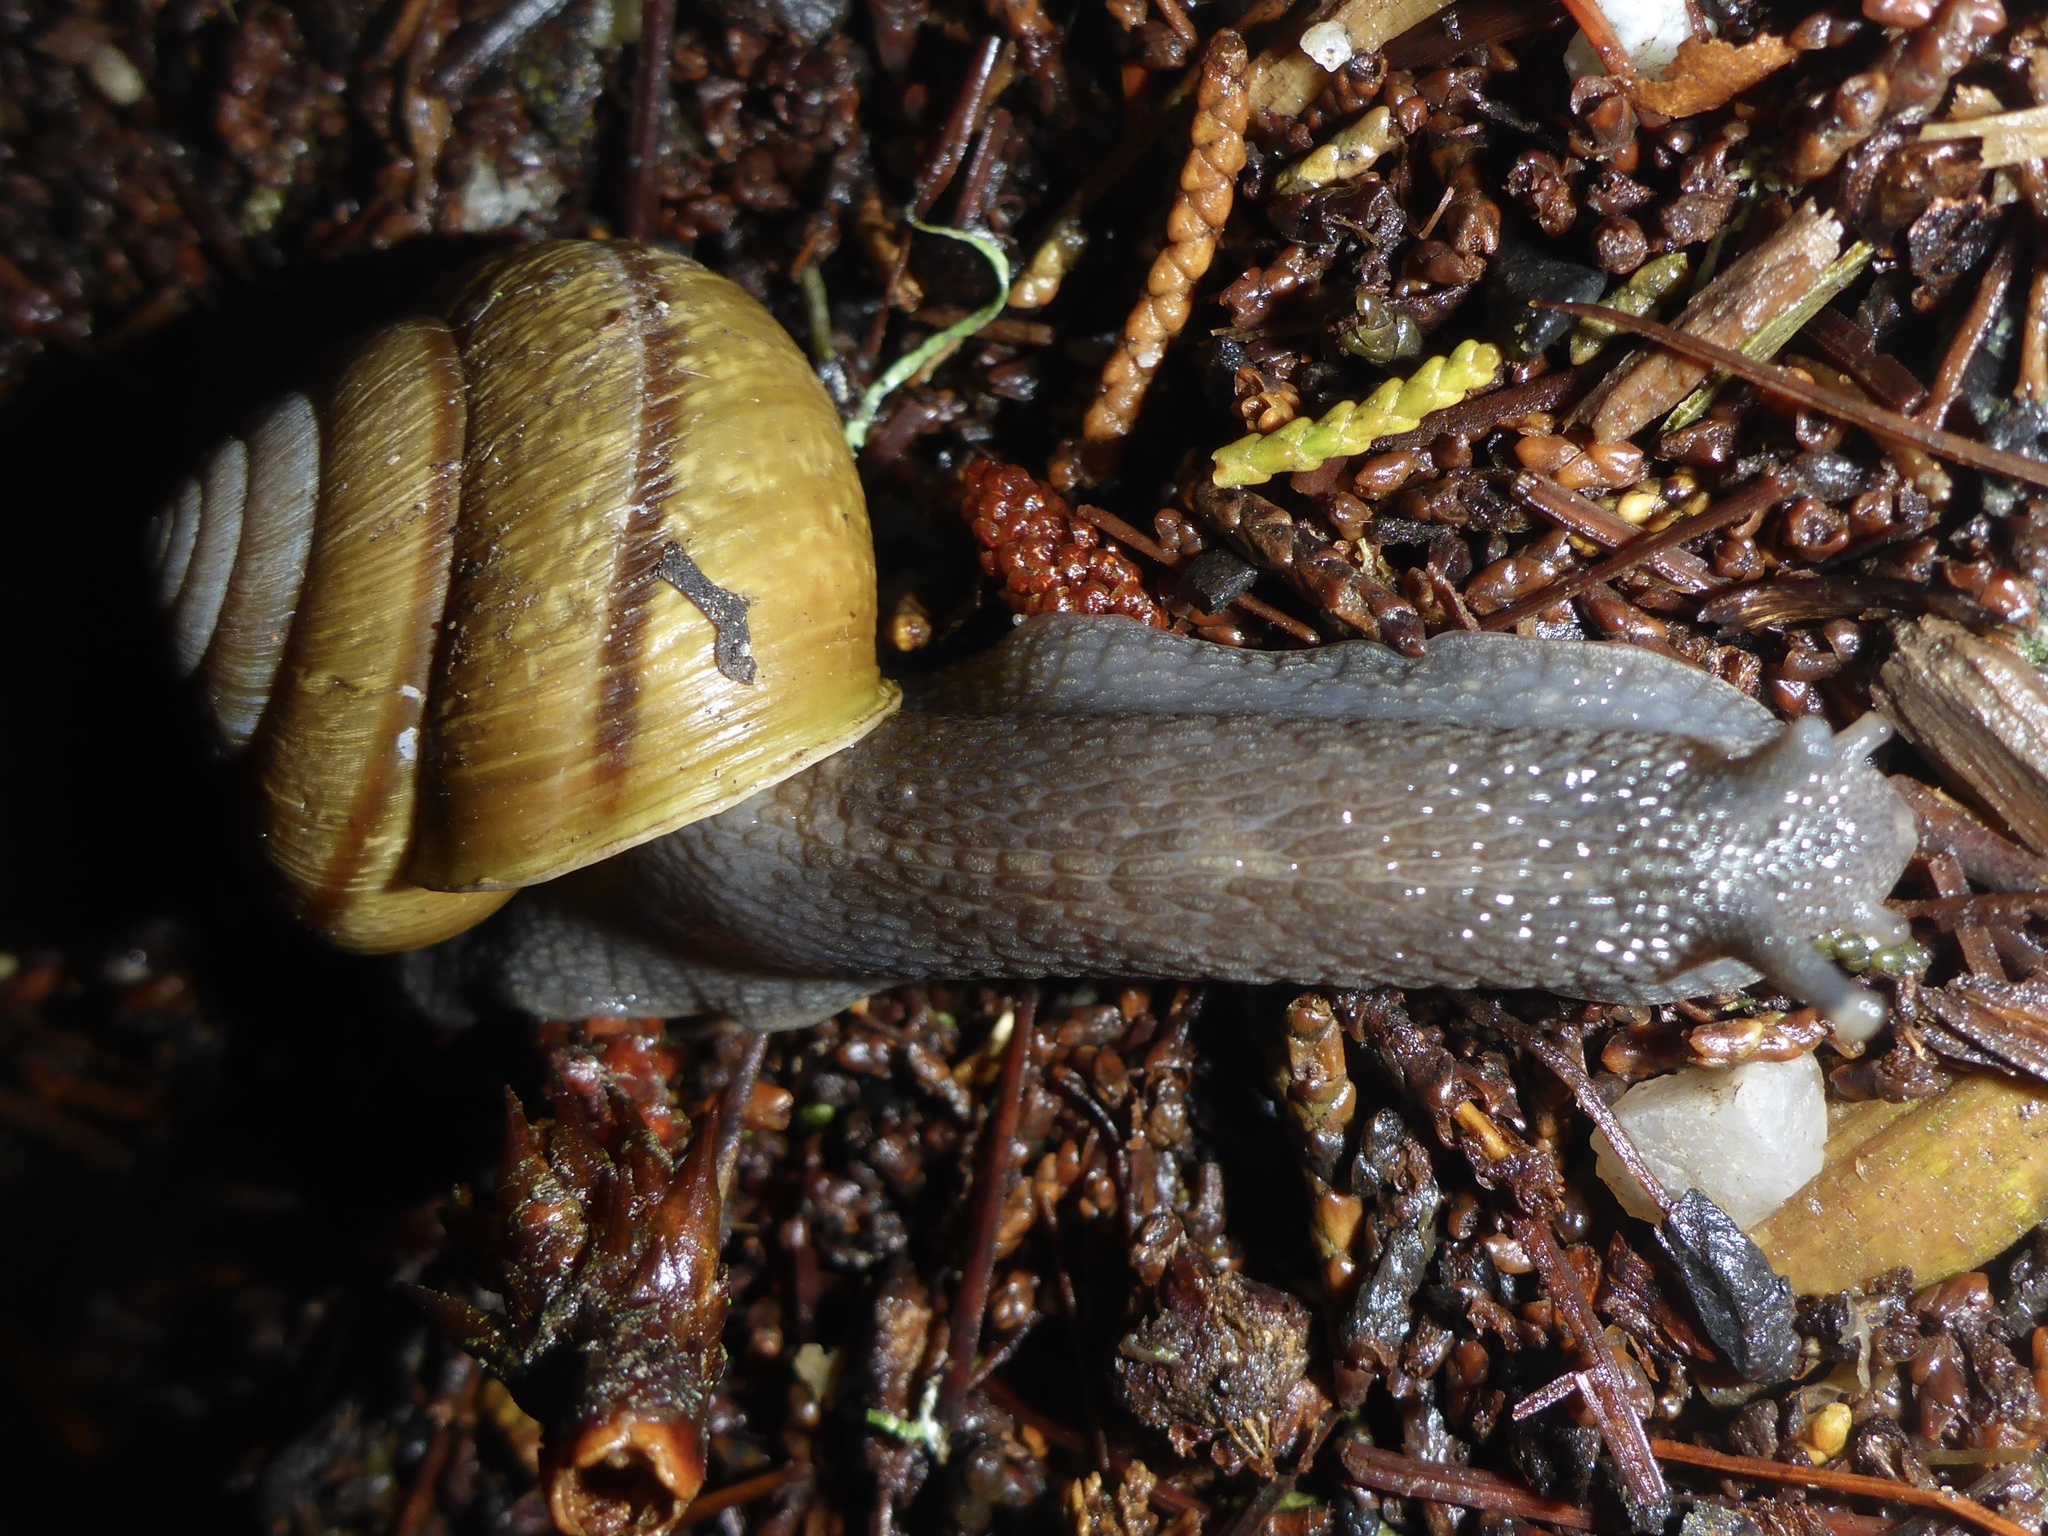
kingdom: Animalia
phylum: Mollusca
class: Gastropoda
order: Stylommatophora
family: Xanthonychidae
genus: Helminthoglypta
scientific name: Helminthoglypta arrosa
